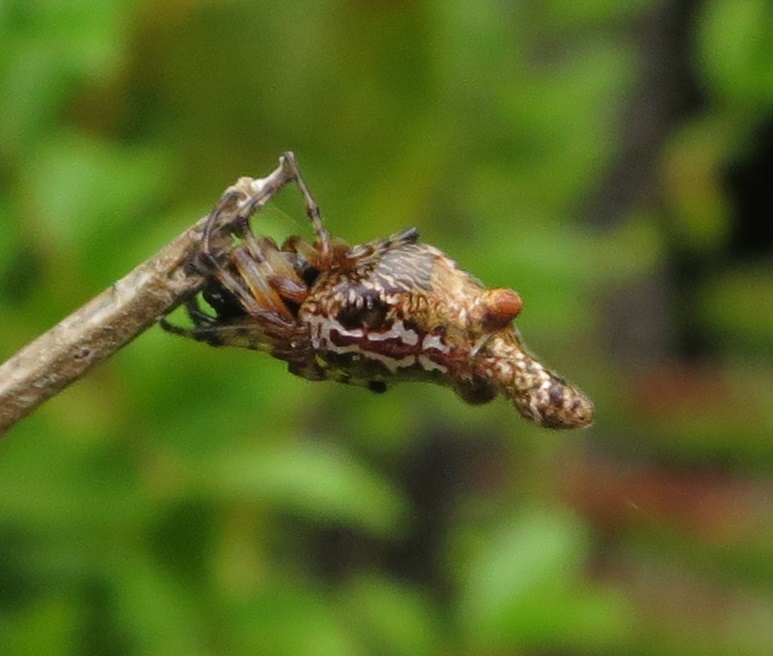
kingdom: Animalia
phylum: Arthropoda
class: Arachnida
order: Araneae
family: Araneidae
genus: Cyclosa
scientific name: Cyclosa trilobata
